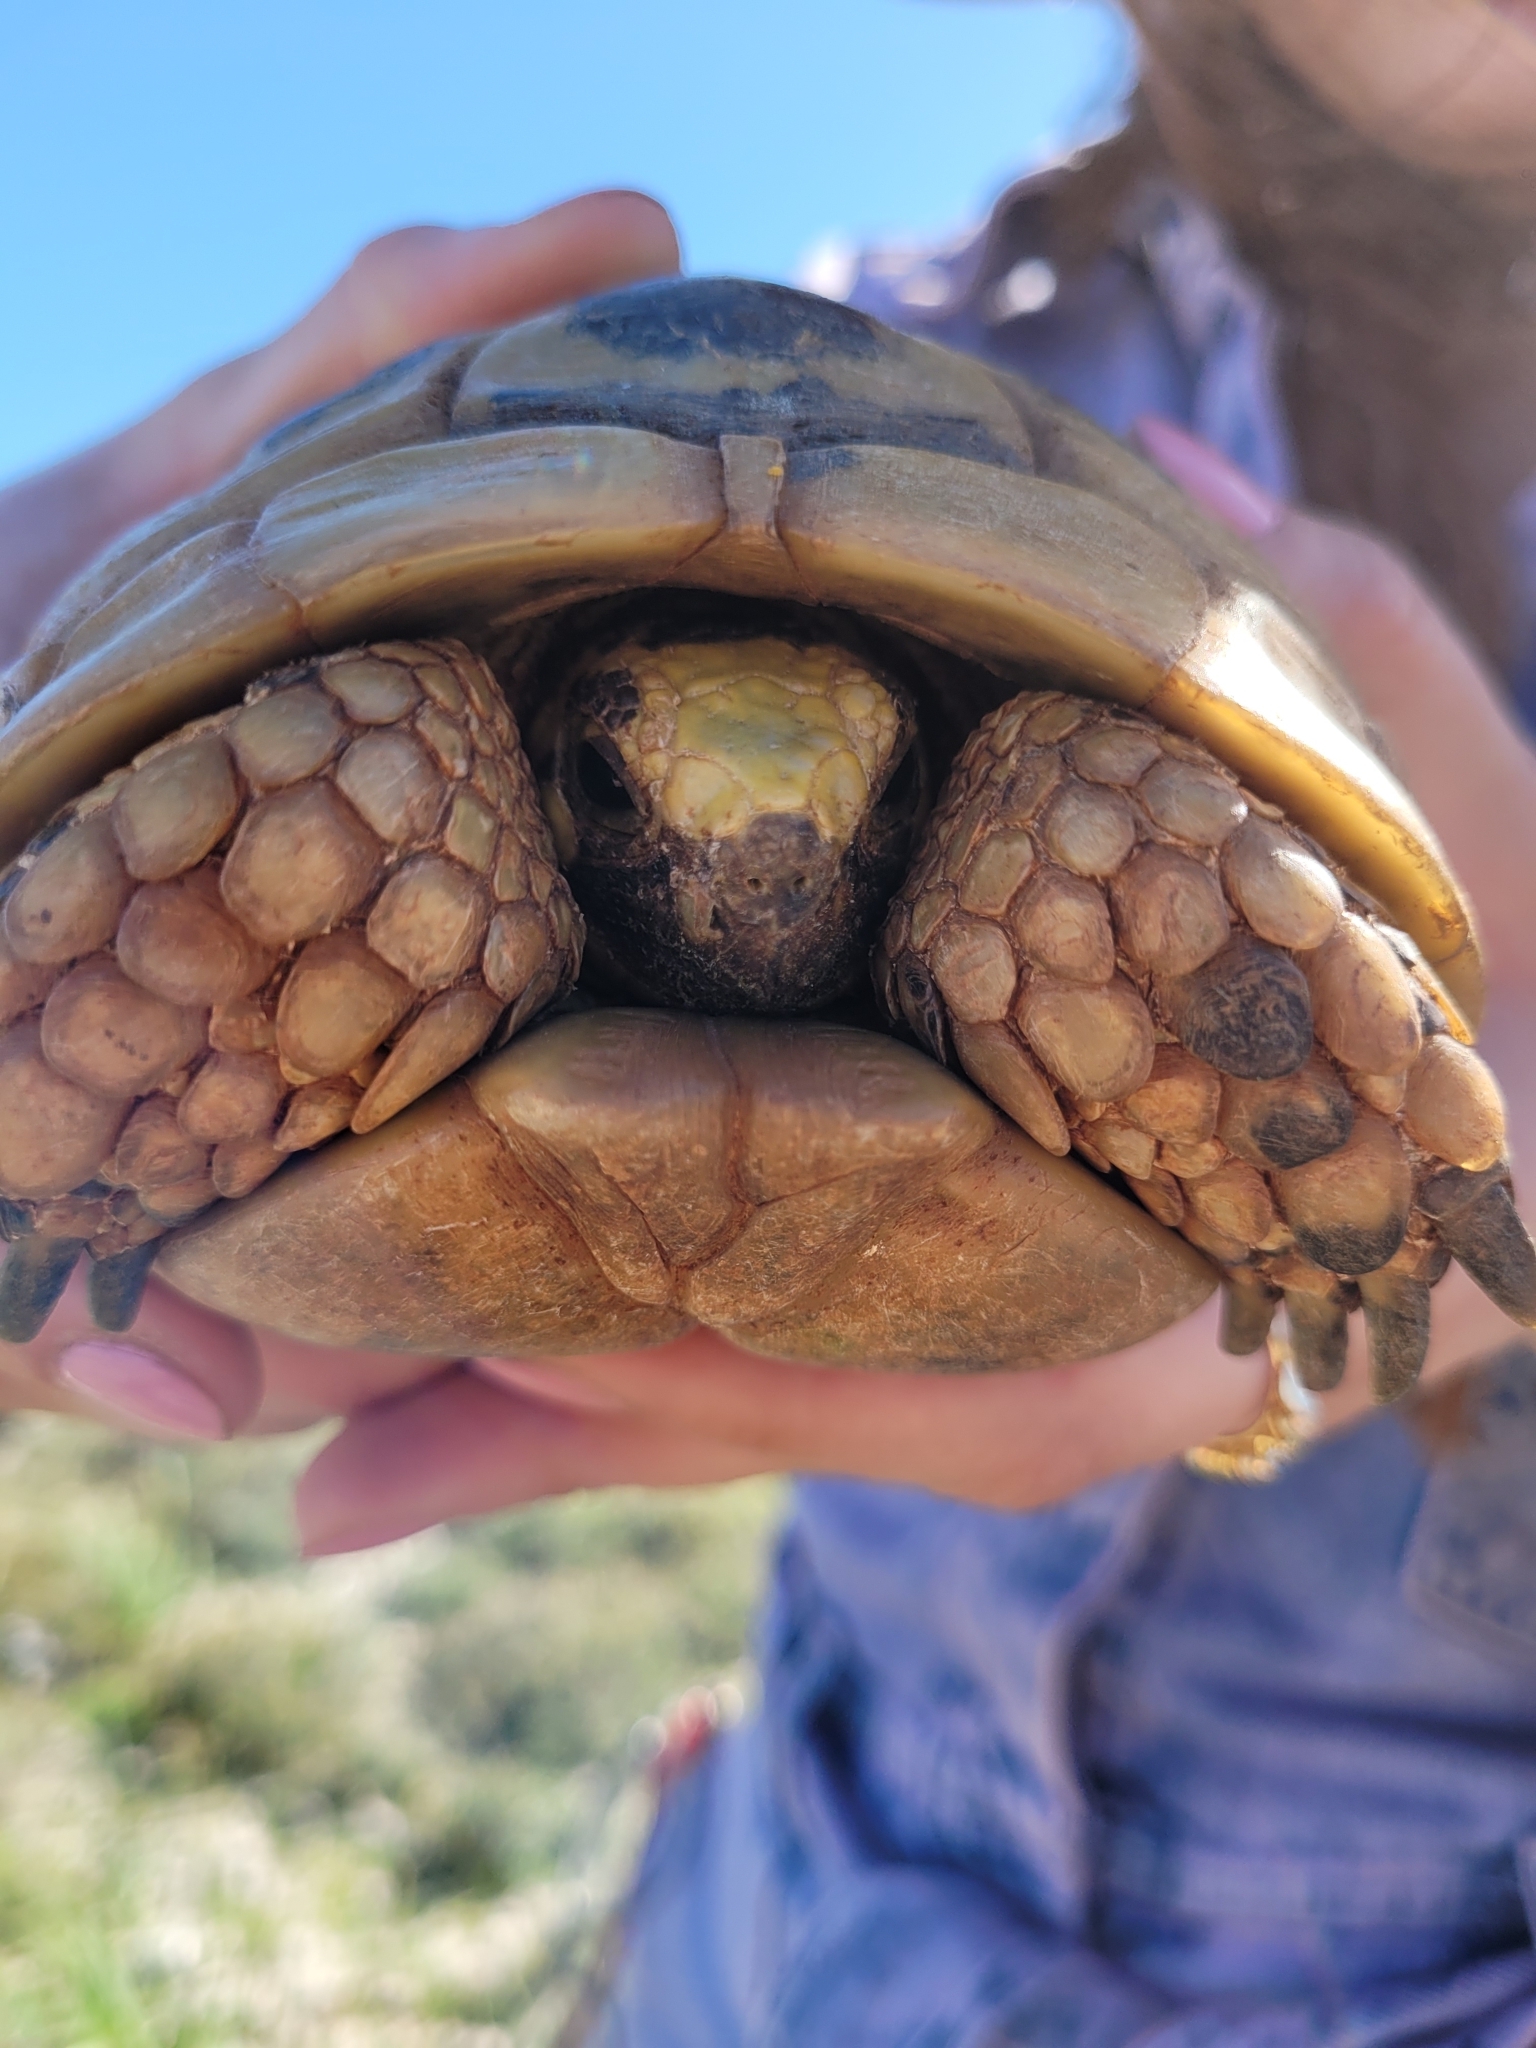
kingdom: Animalia
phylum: Chordata
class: Testudines
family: Testudinidae
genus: Testudo
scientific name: Testudo graeca
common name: Common tortoise
